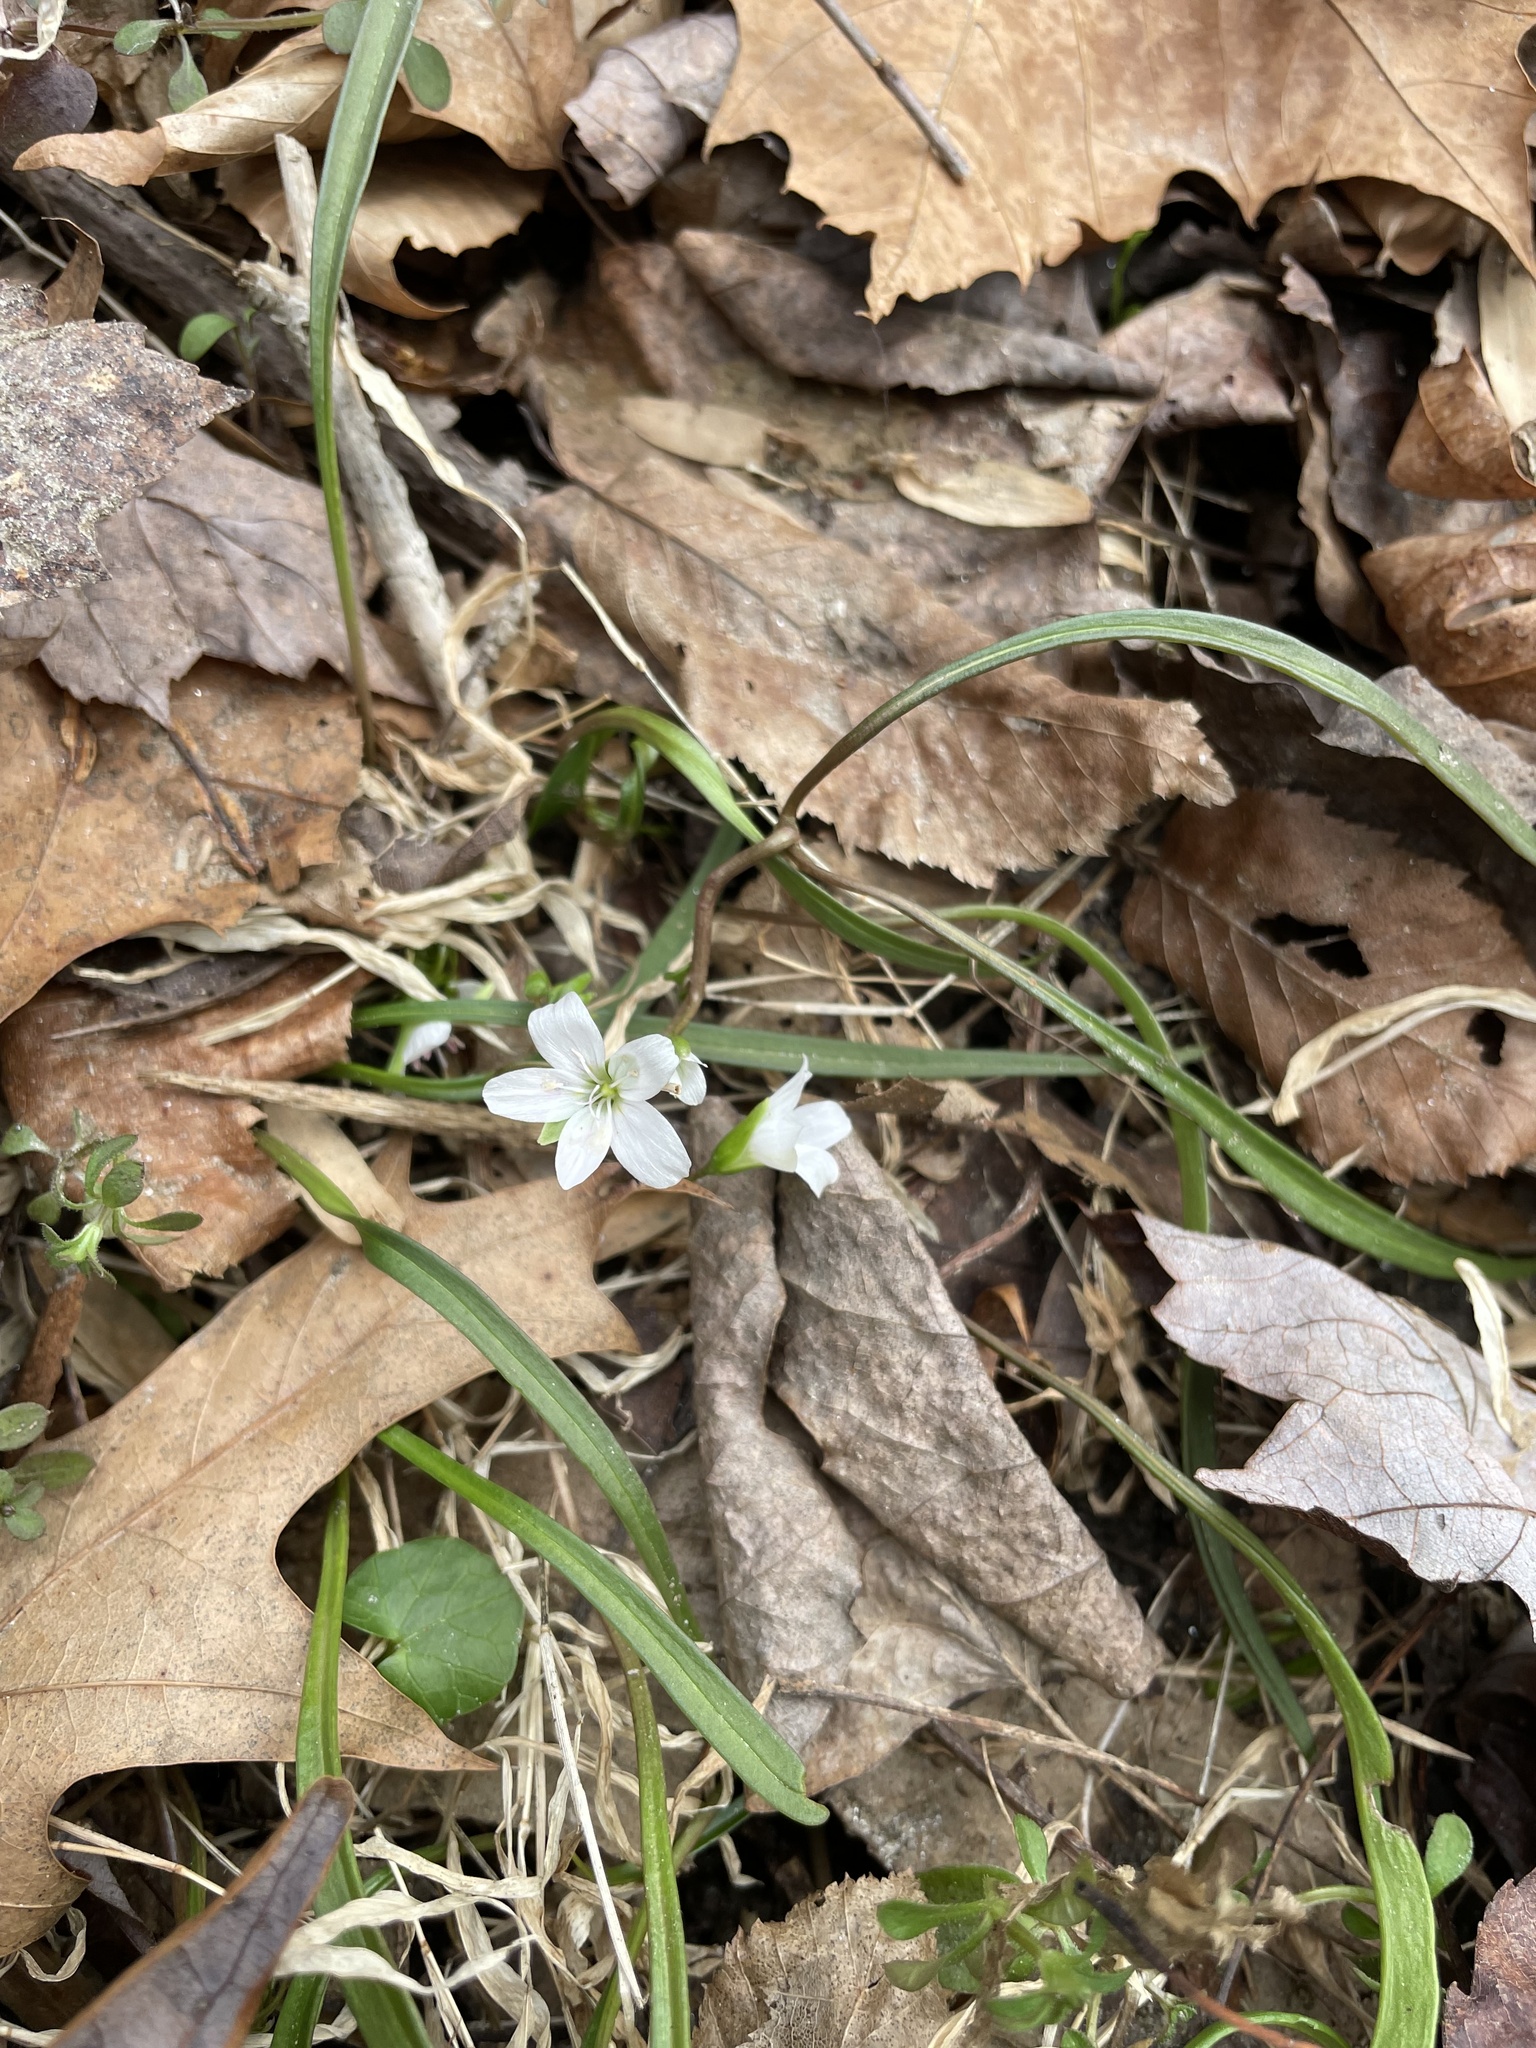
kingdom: Plantae
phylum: Tracheophyta
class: Magnoliopsida
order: Caryophyllales
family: Montiaceae
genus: Claytonia
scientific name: Claytonia virginica
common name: Virginia springbeauty
